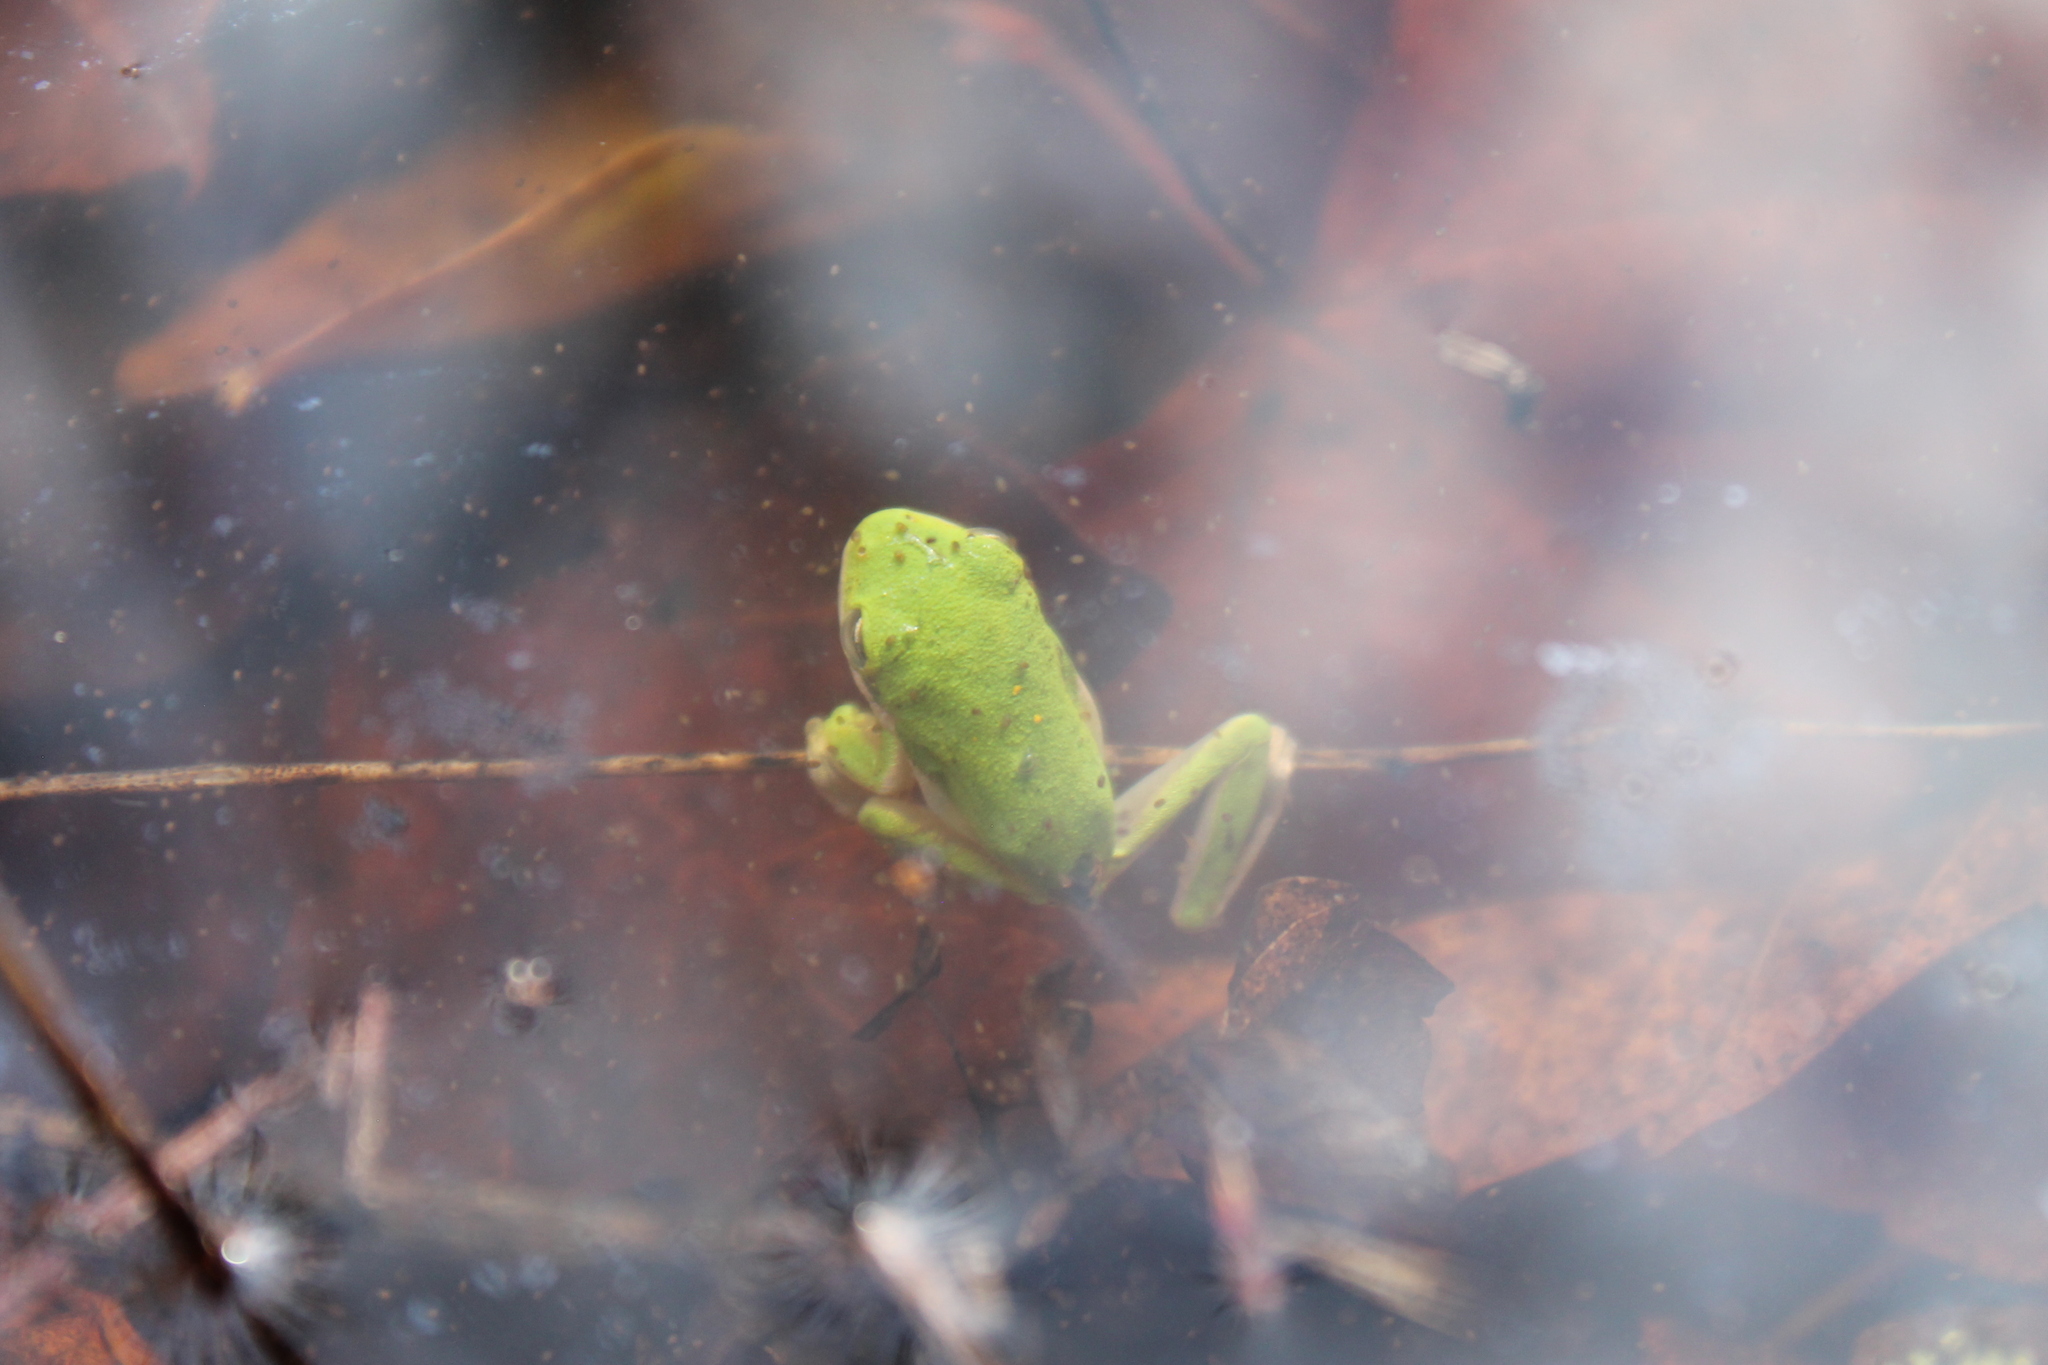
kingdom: Animalia
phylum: Chordata
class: Amphibia
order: Anura
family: Hylidae
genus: Dryophytes
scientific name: Dryophytes cinereus
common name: Green treefrog
